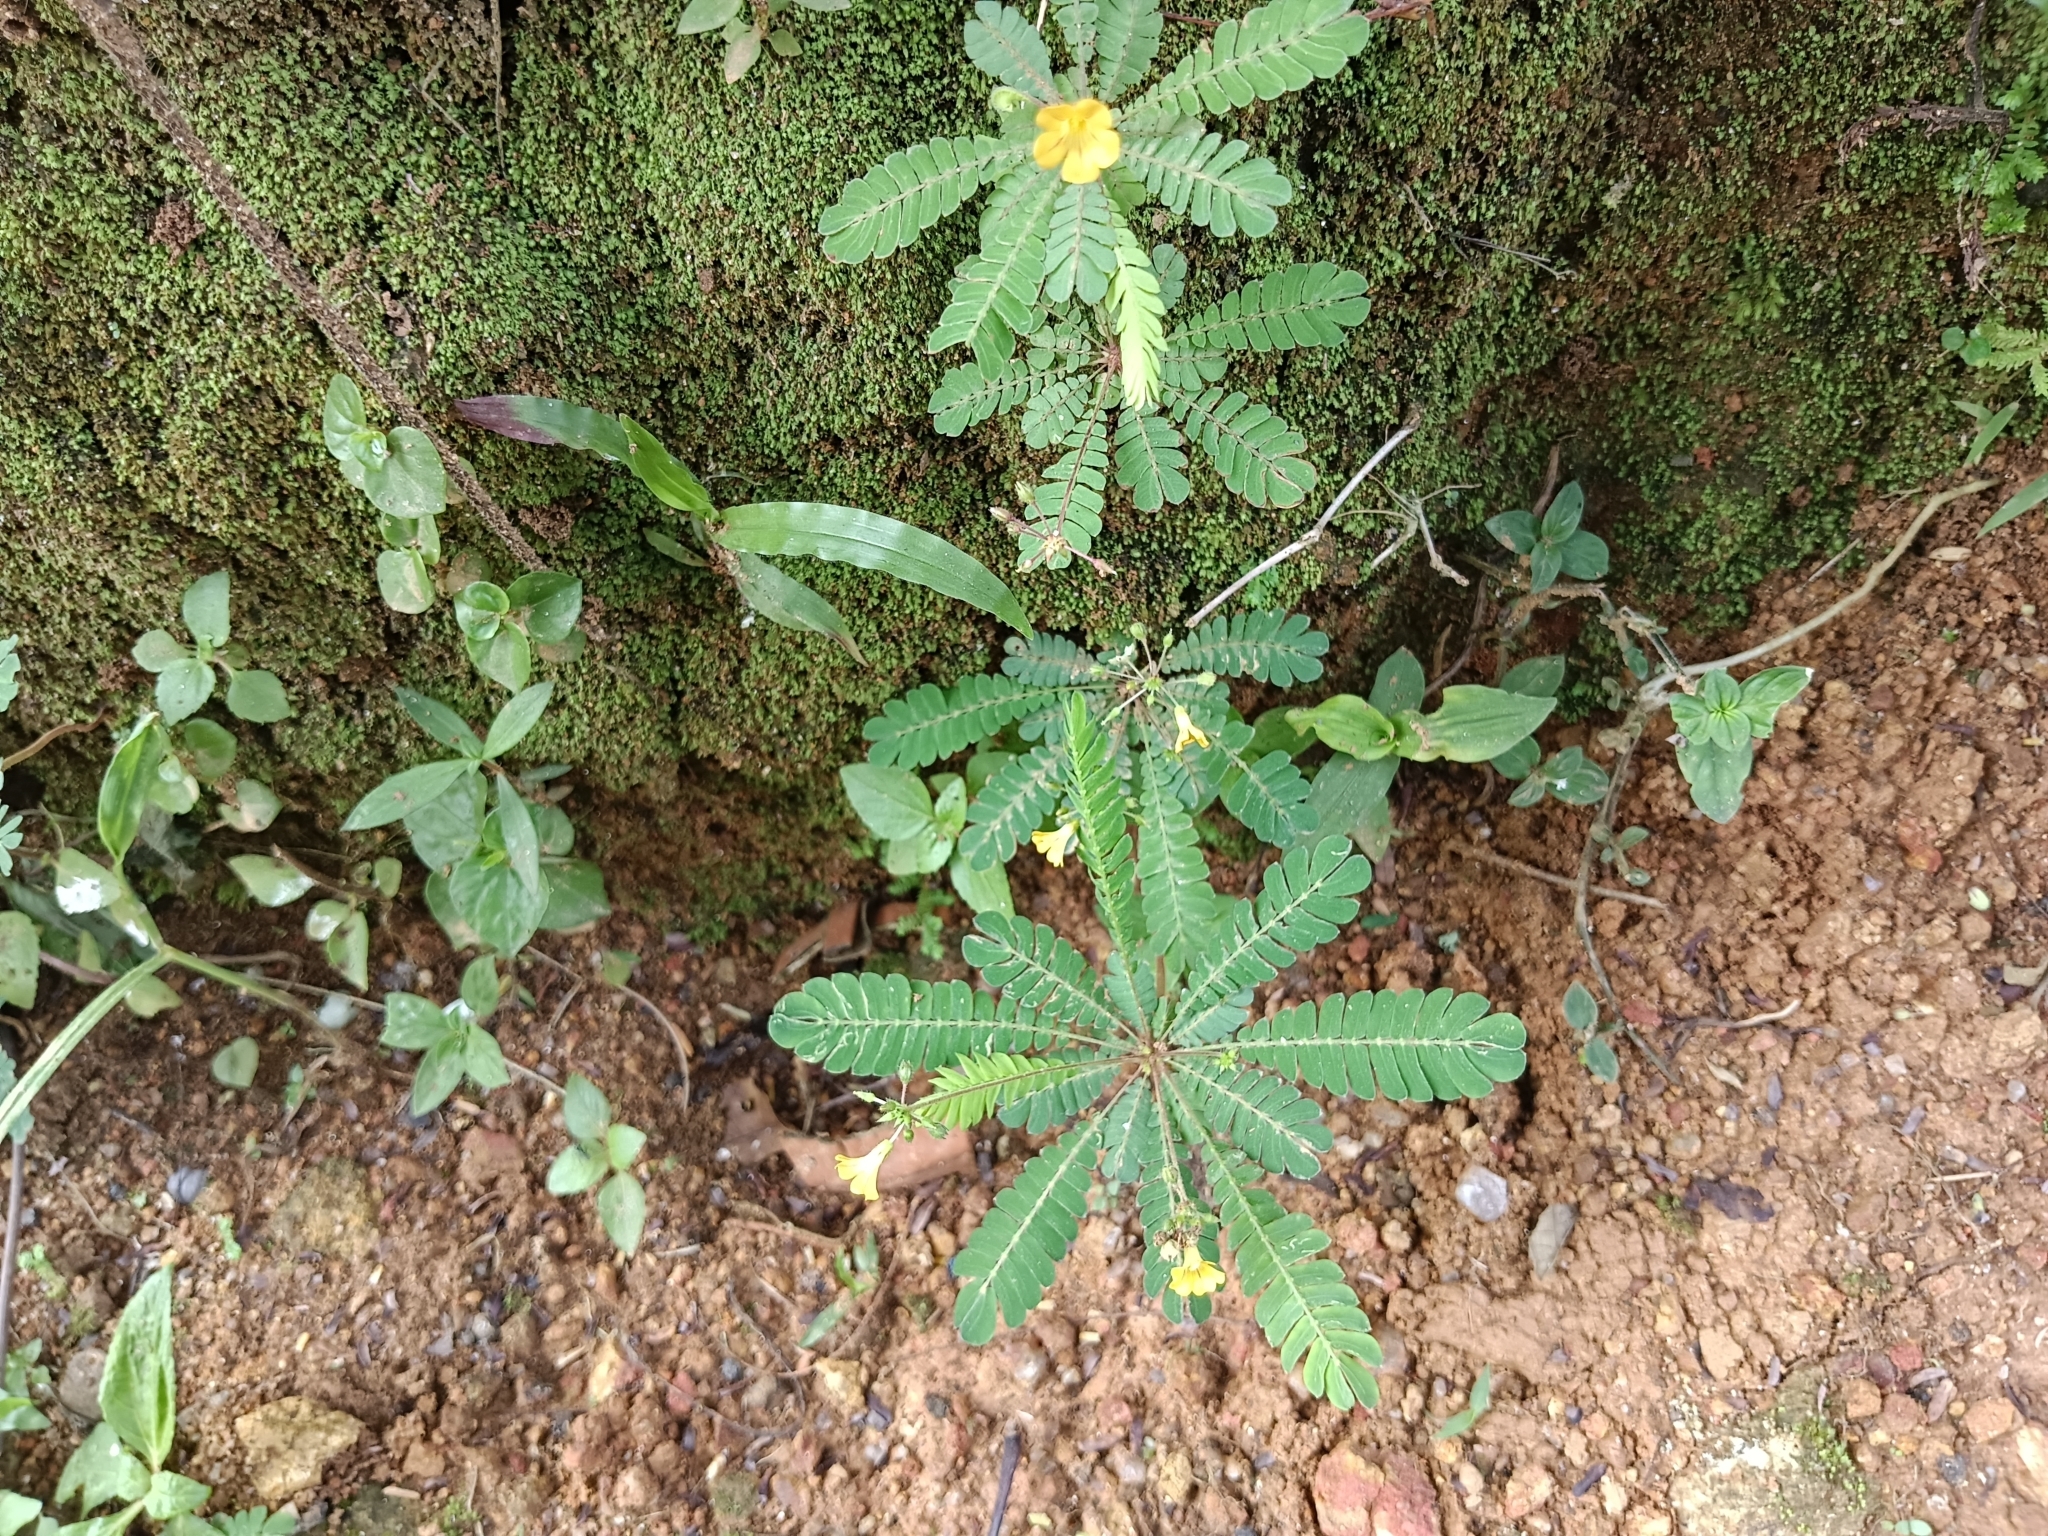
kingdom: Plantae
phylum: Tracheophyta
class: Magnoliopsida
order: Oxalidales
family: Oxalidaceae
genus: Biophytum
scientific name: Biophytum sensitivum
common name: Lifeplant
